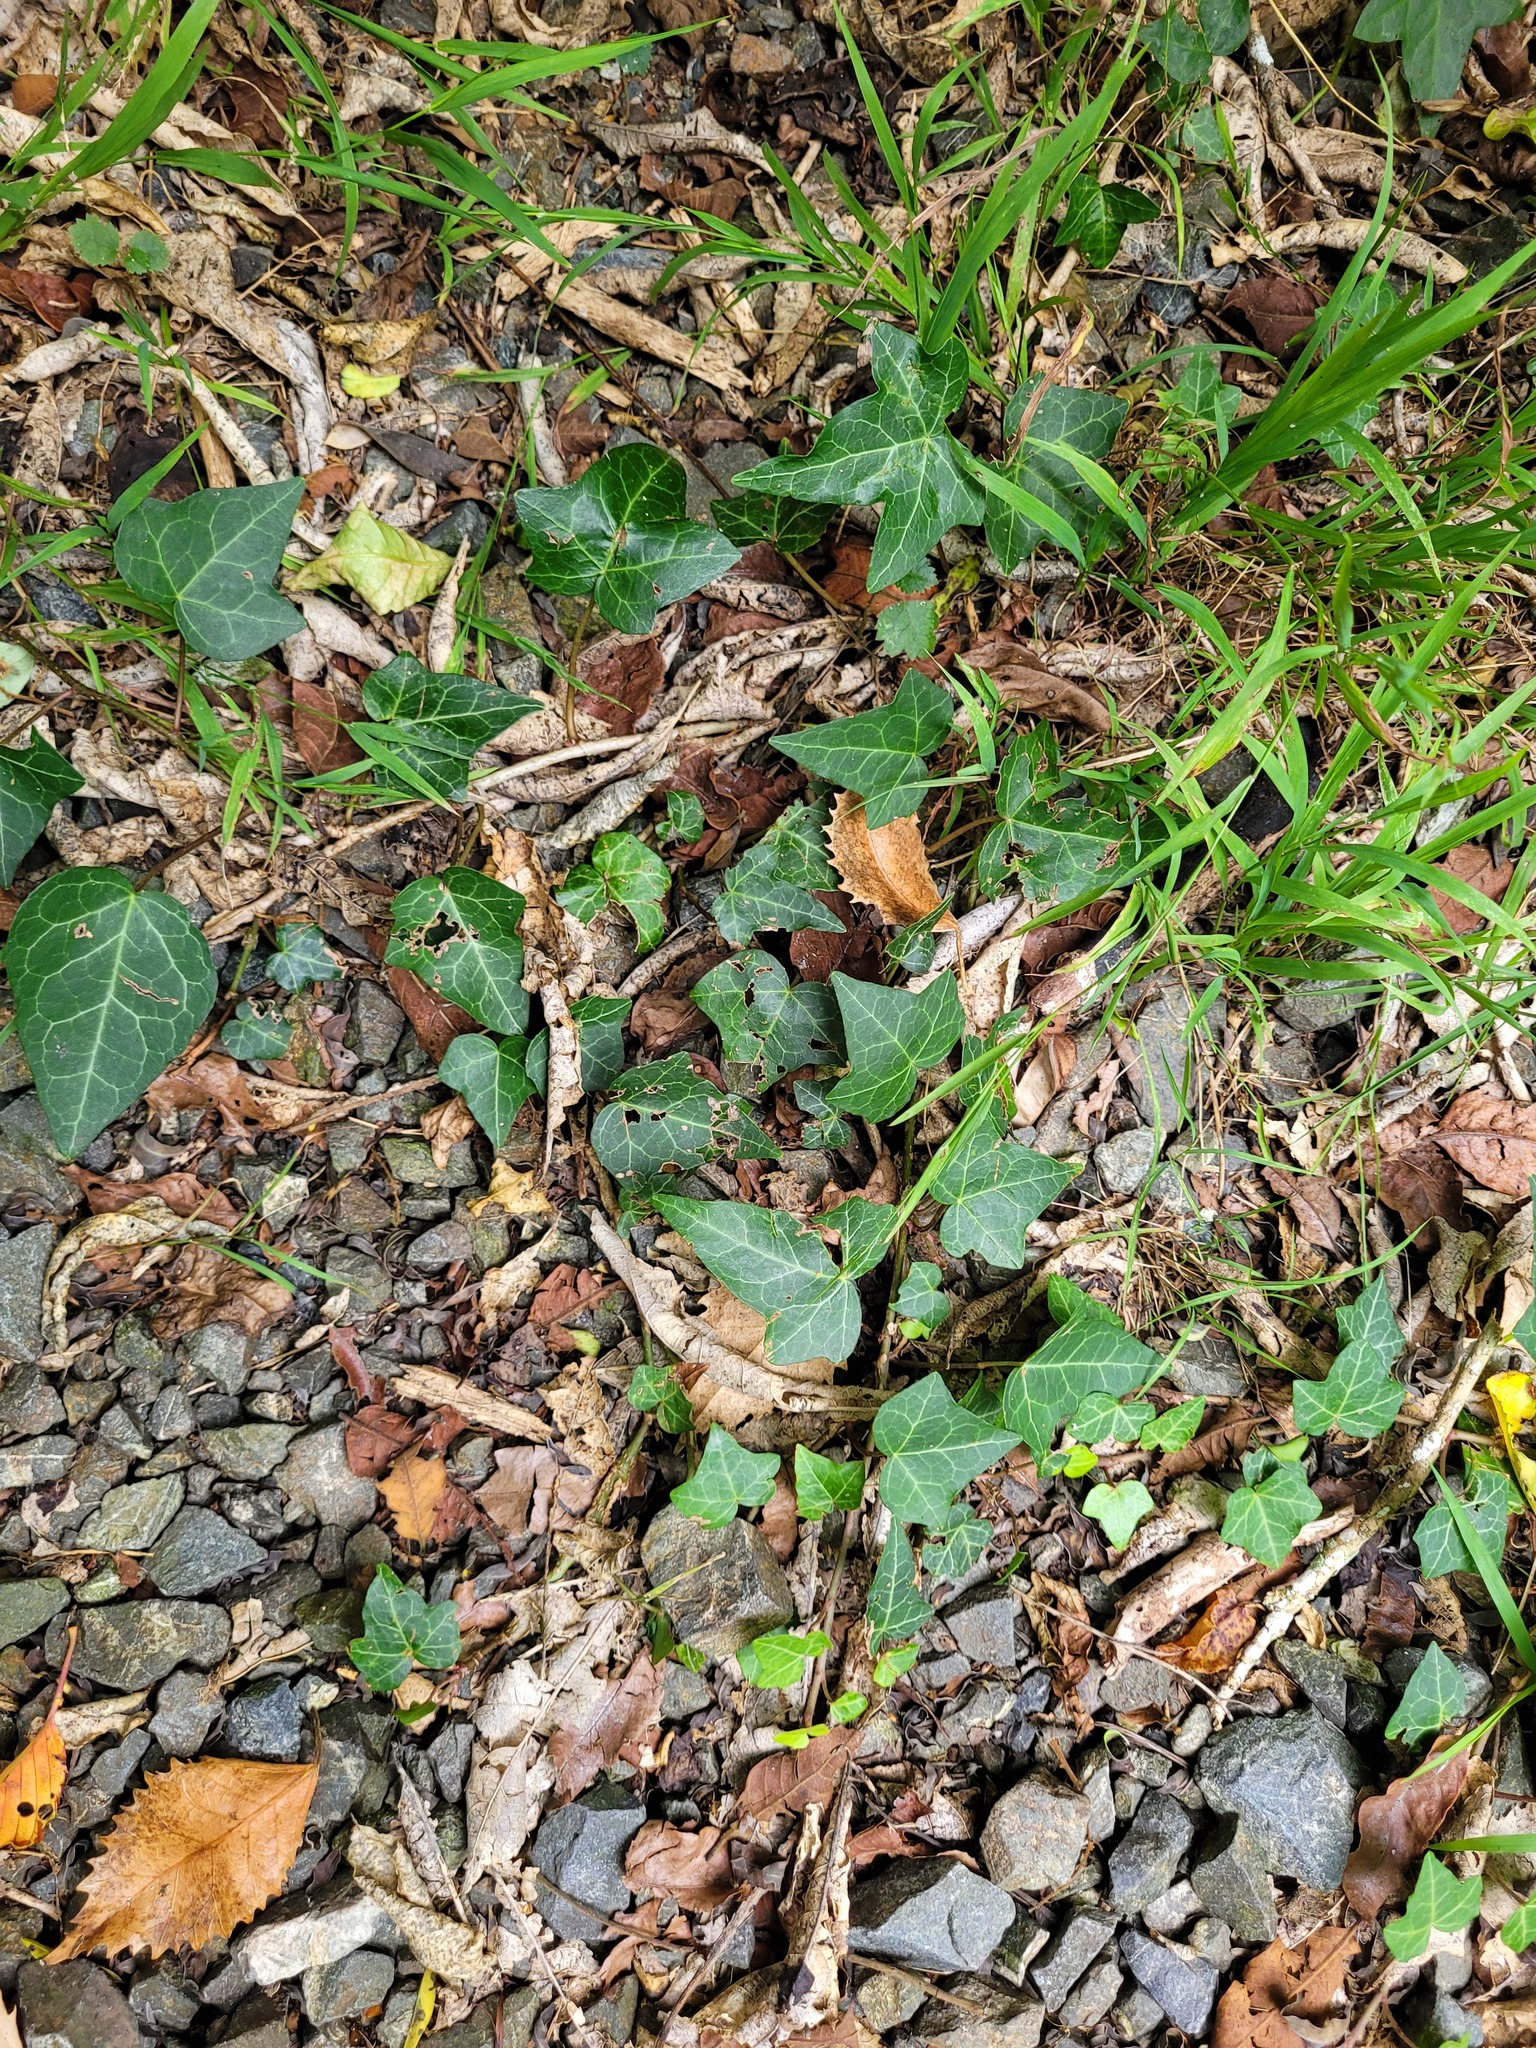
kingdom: Plantae
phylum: Tracheophyta
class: Magnoliopsida
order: Apiales
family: Araliaceae
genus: Hedera
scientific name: Hedera helix
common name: Ivy
